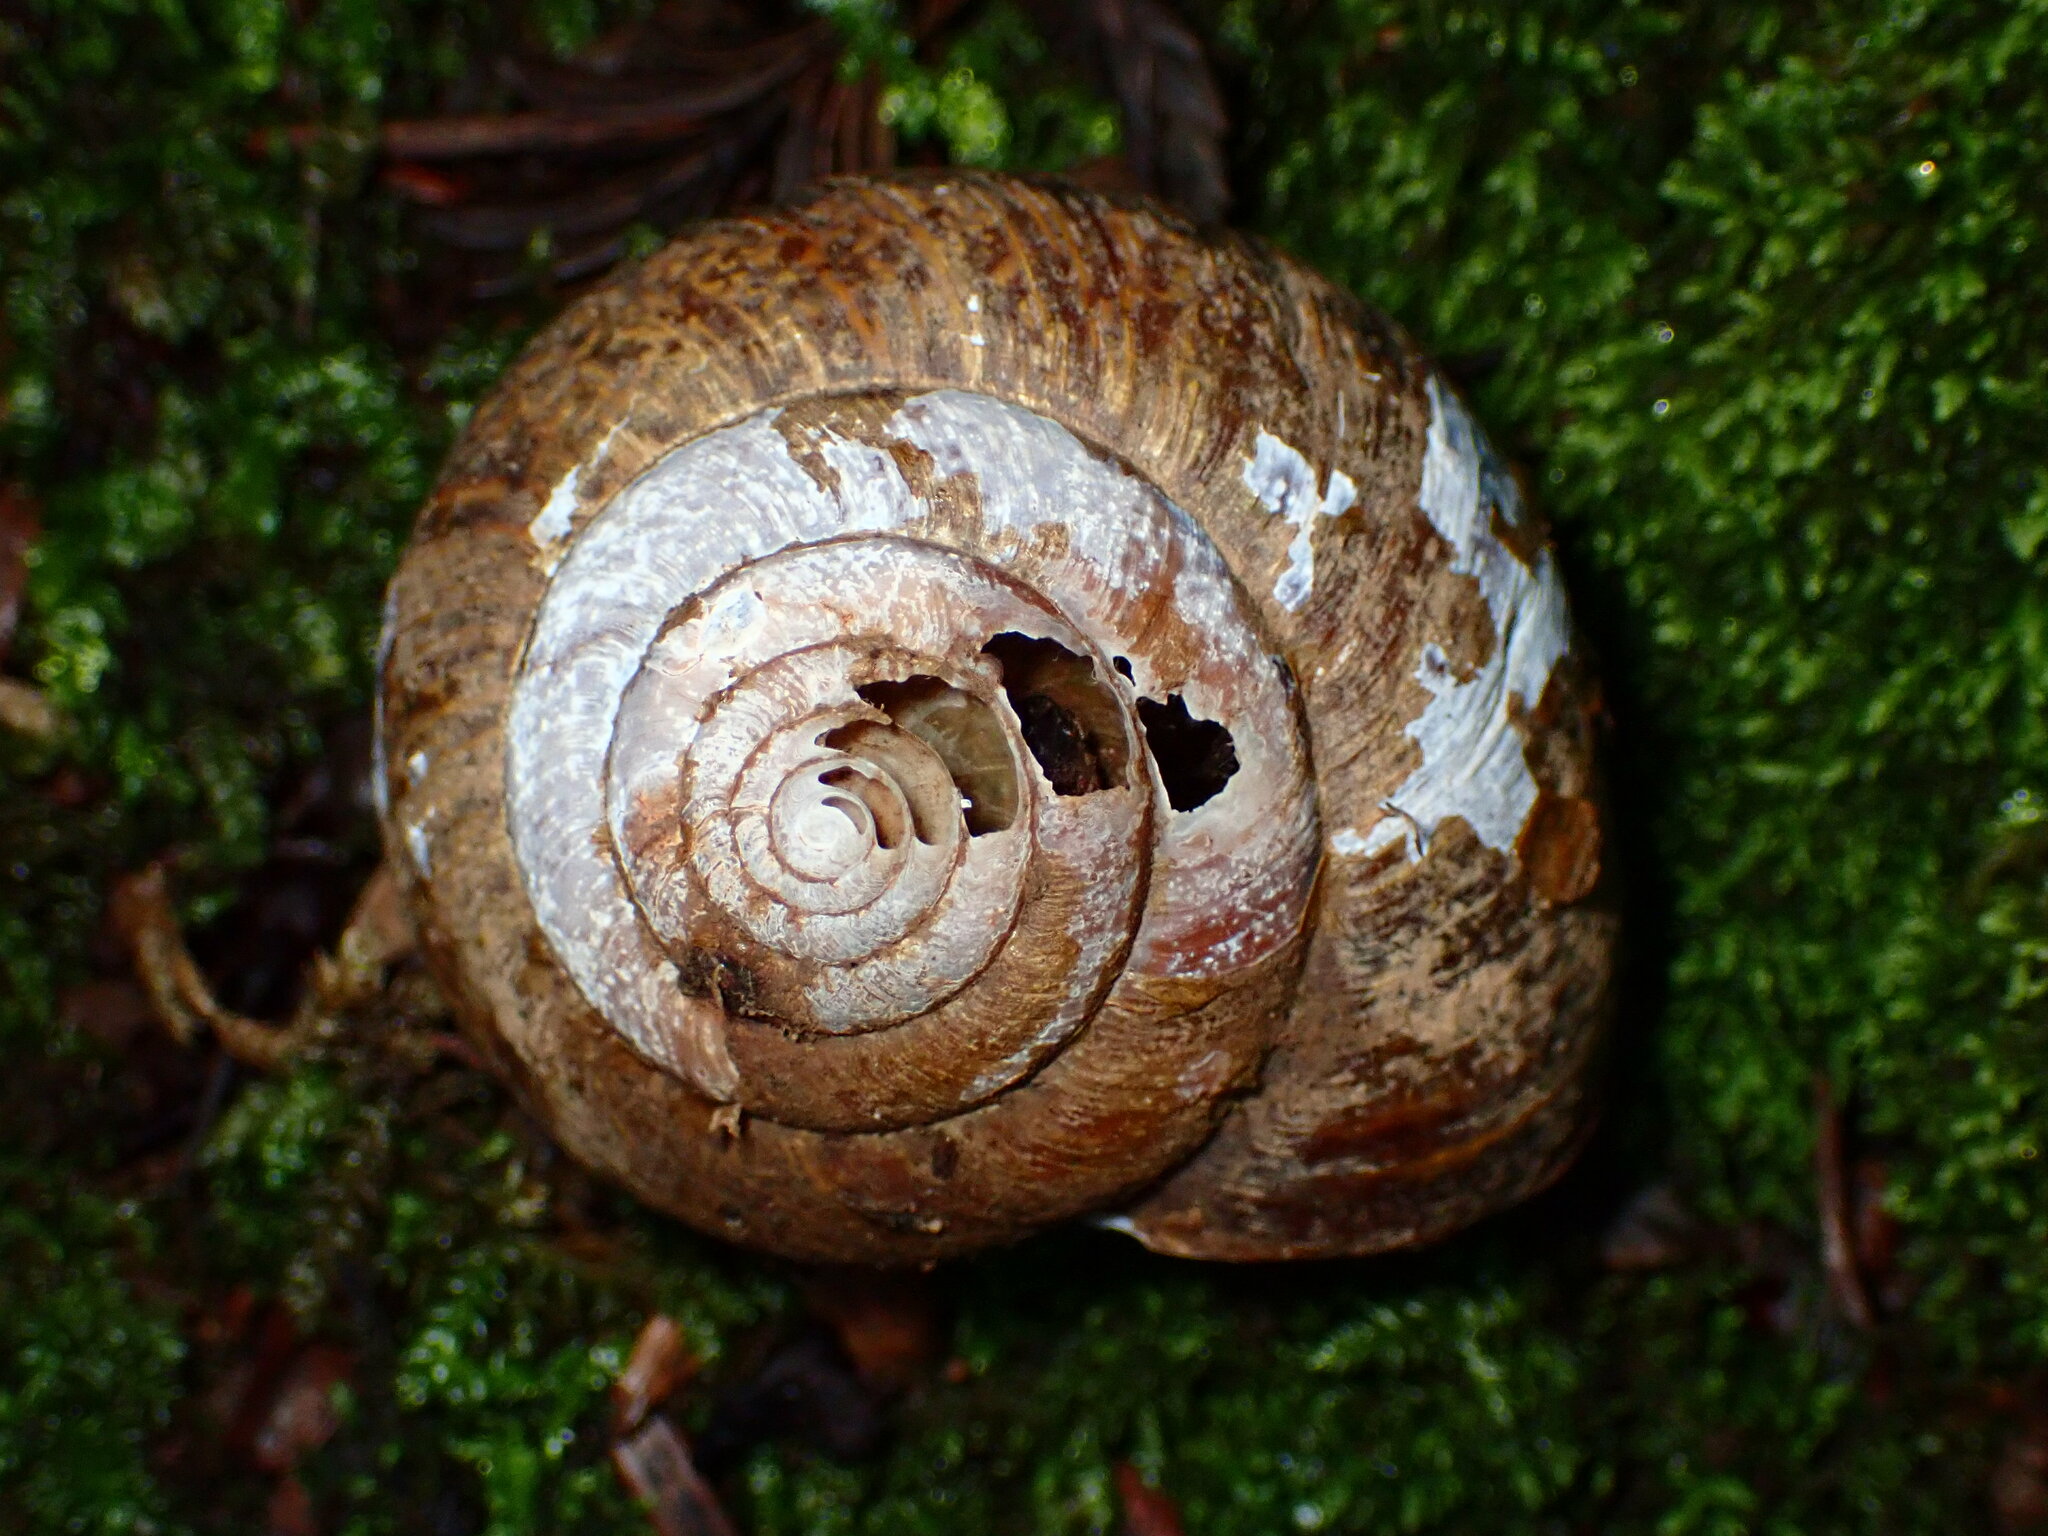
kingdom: Animalia
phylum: Mollusca
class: Gastropoda
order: Stylommatophora
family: Xanthonychidae
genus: Helminthoglypta
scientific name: Helminthoglypta arrosa
